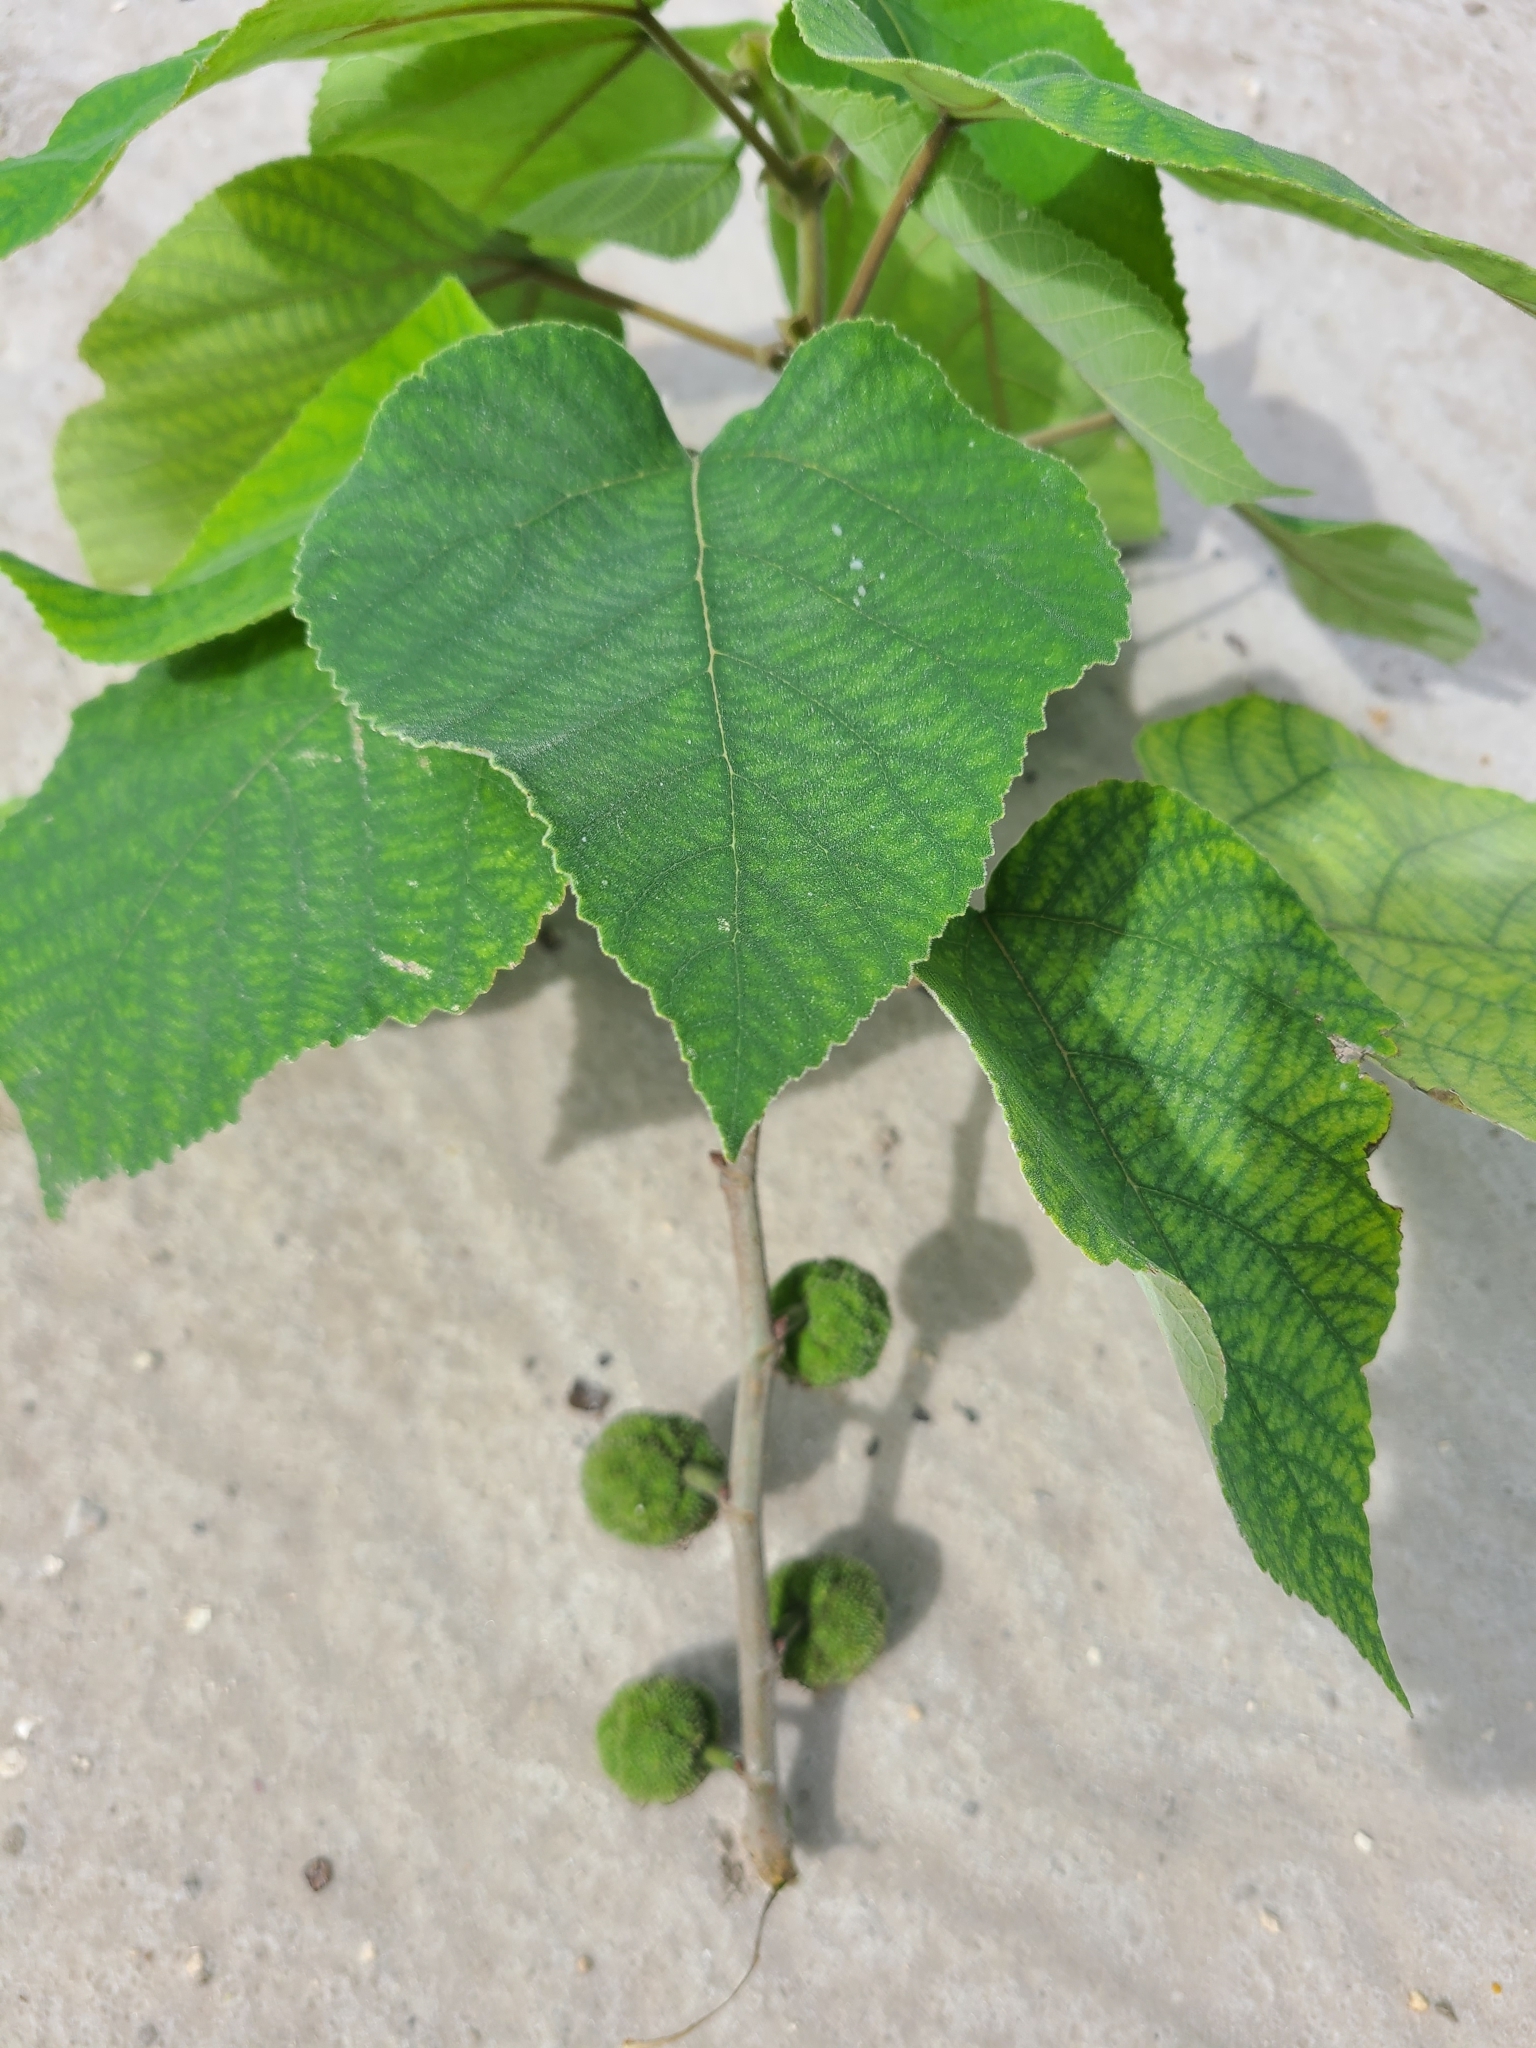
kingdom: Plantae
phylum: Tracheophyta
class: Magnoliopsida
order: Rosales
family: Moraceae
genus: Broussonetia
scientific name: Broussonetia papyrifera
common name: Paper mulberry
